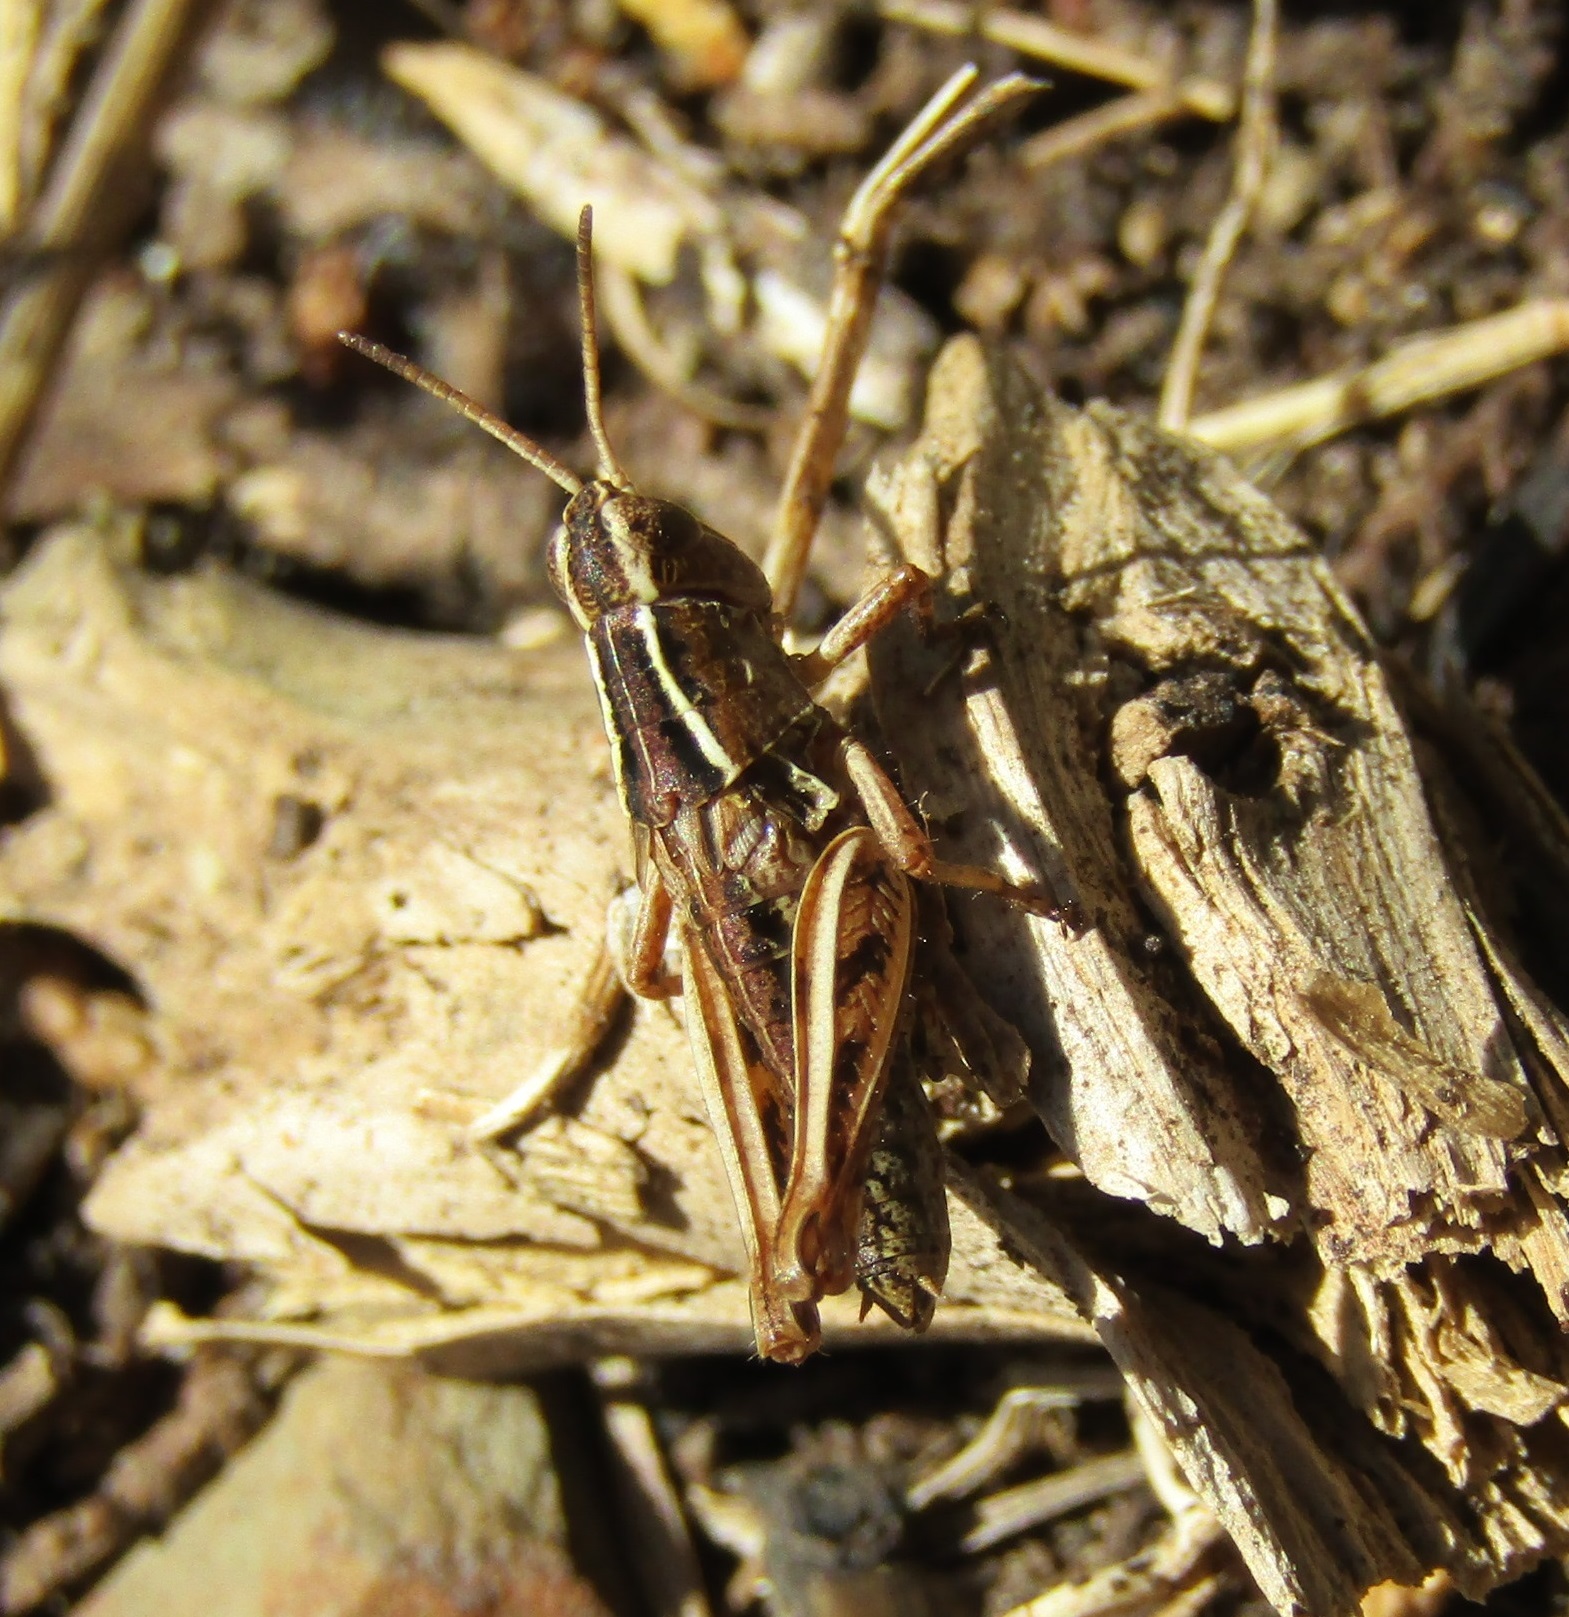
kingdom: Animalia
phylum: Arthropoda
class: Insecta
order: Orthoptera
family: Acrididae
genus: Phaulacridium
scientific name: Phaulacridium marginale
